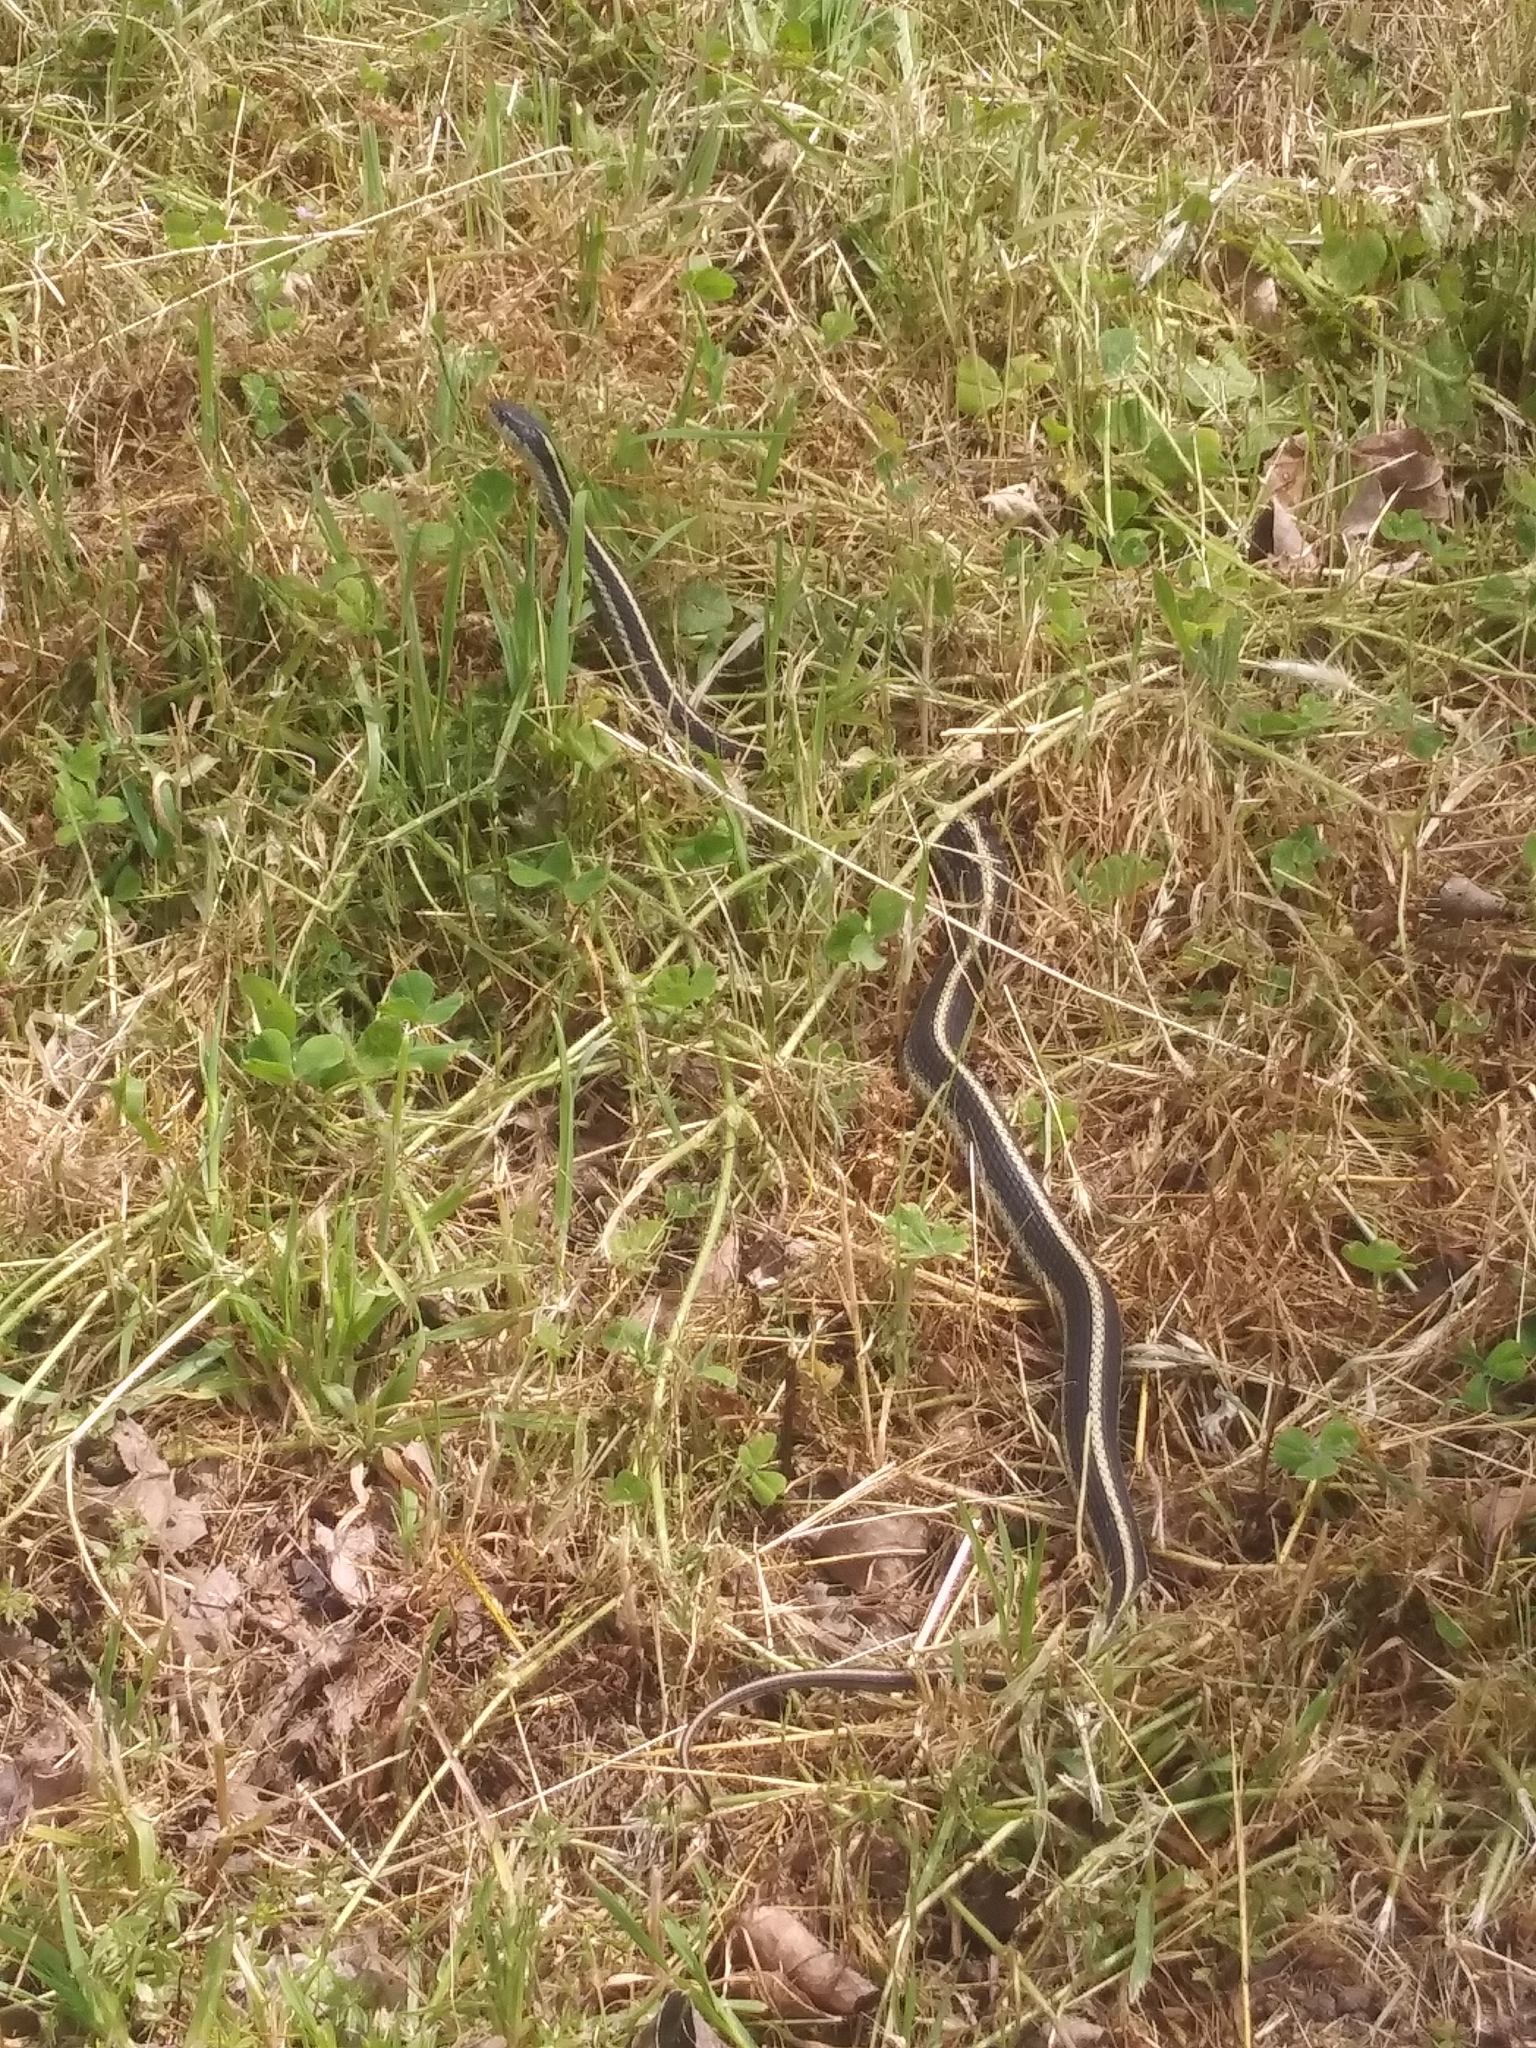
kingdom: Animalia
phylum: Chordata
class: Squamata
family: Colubridae
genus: Thamnophis
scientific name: Thamnophis atratus
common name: Pacific coast aquatic garter snake
